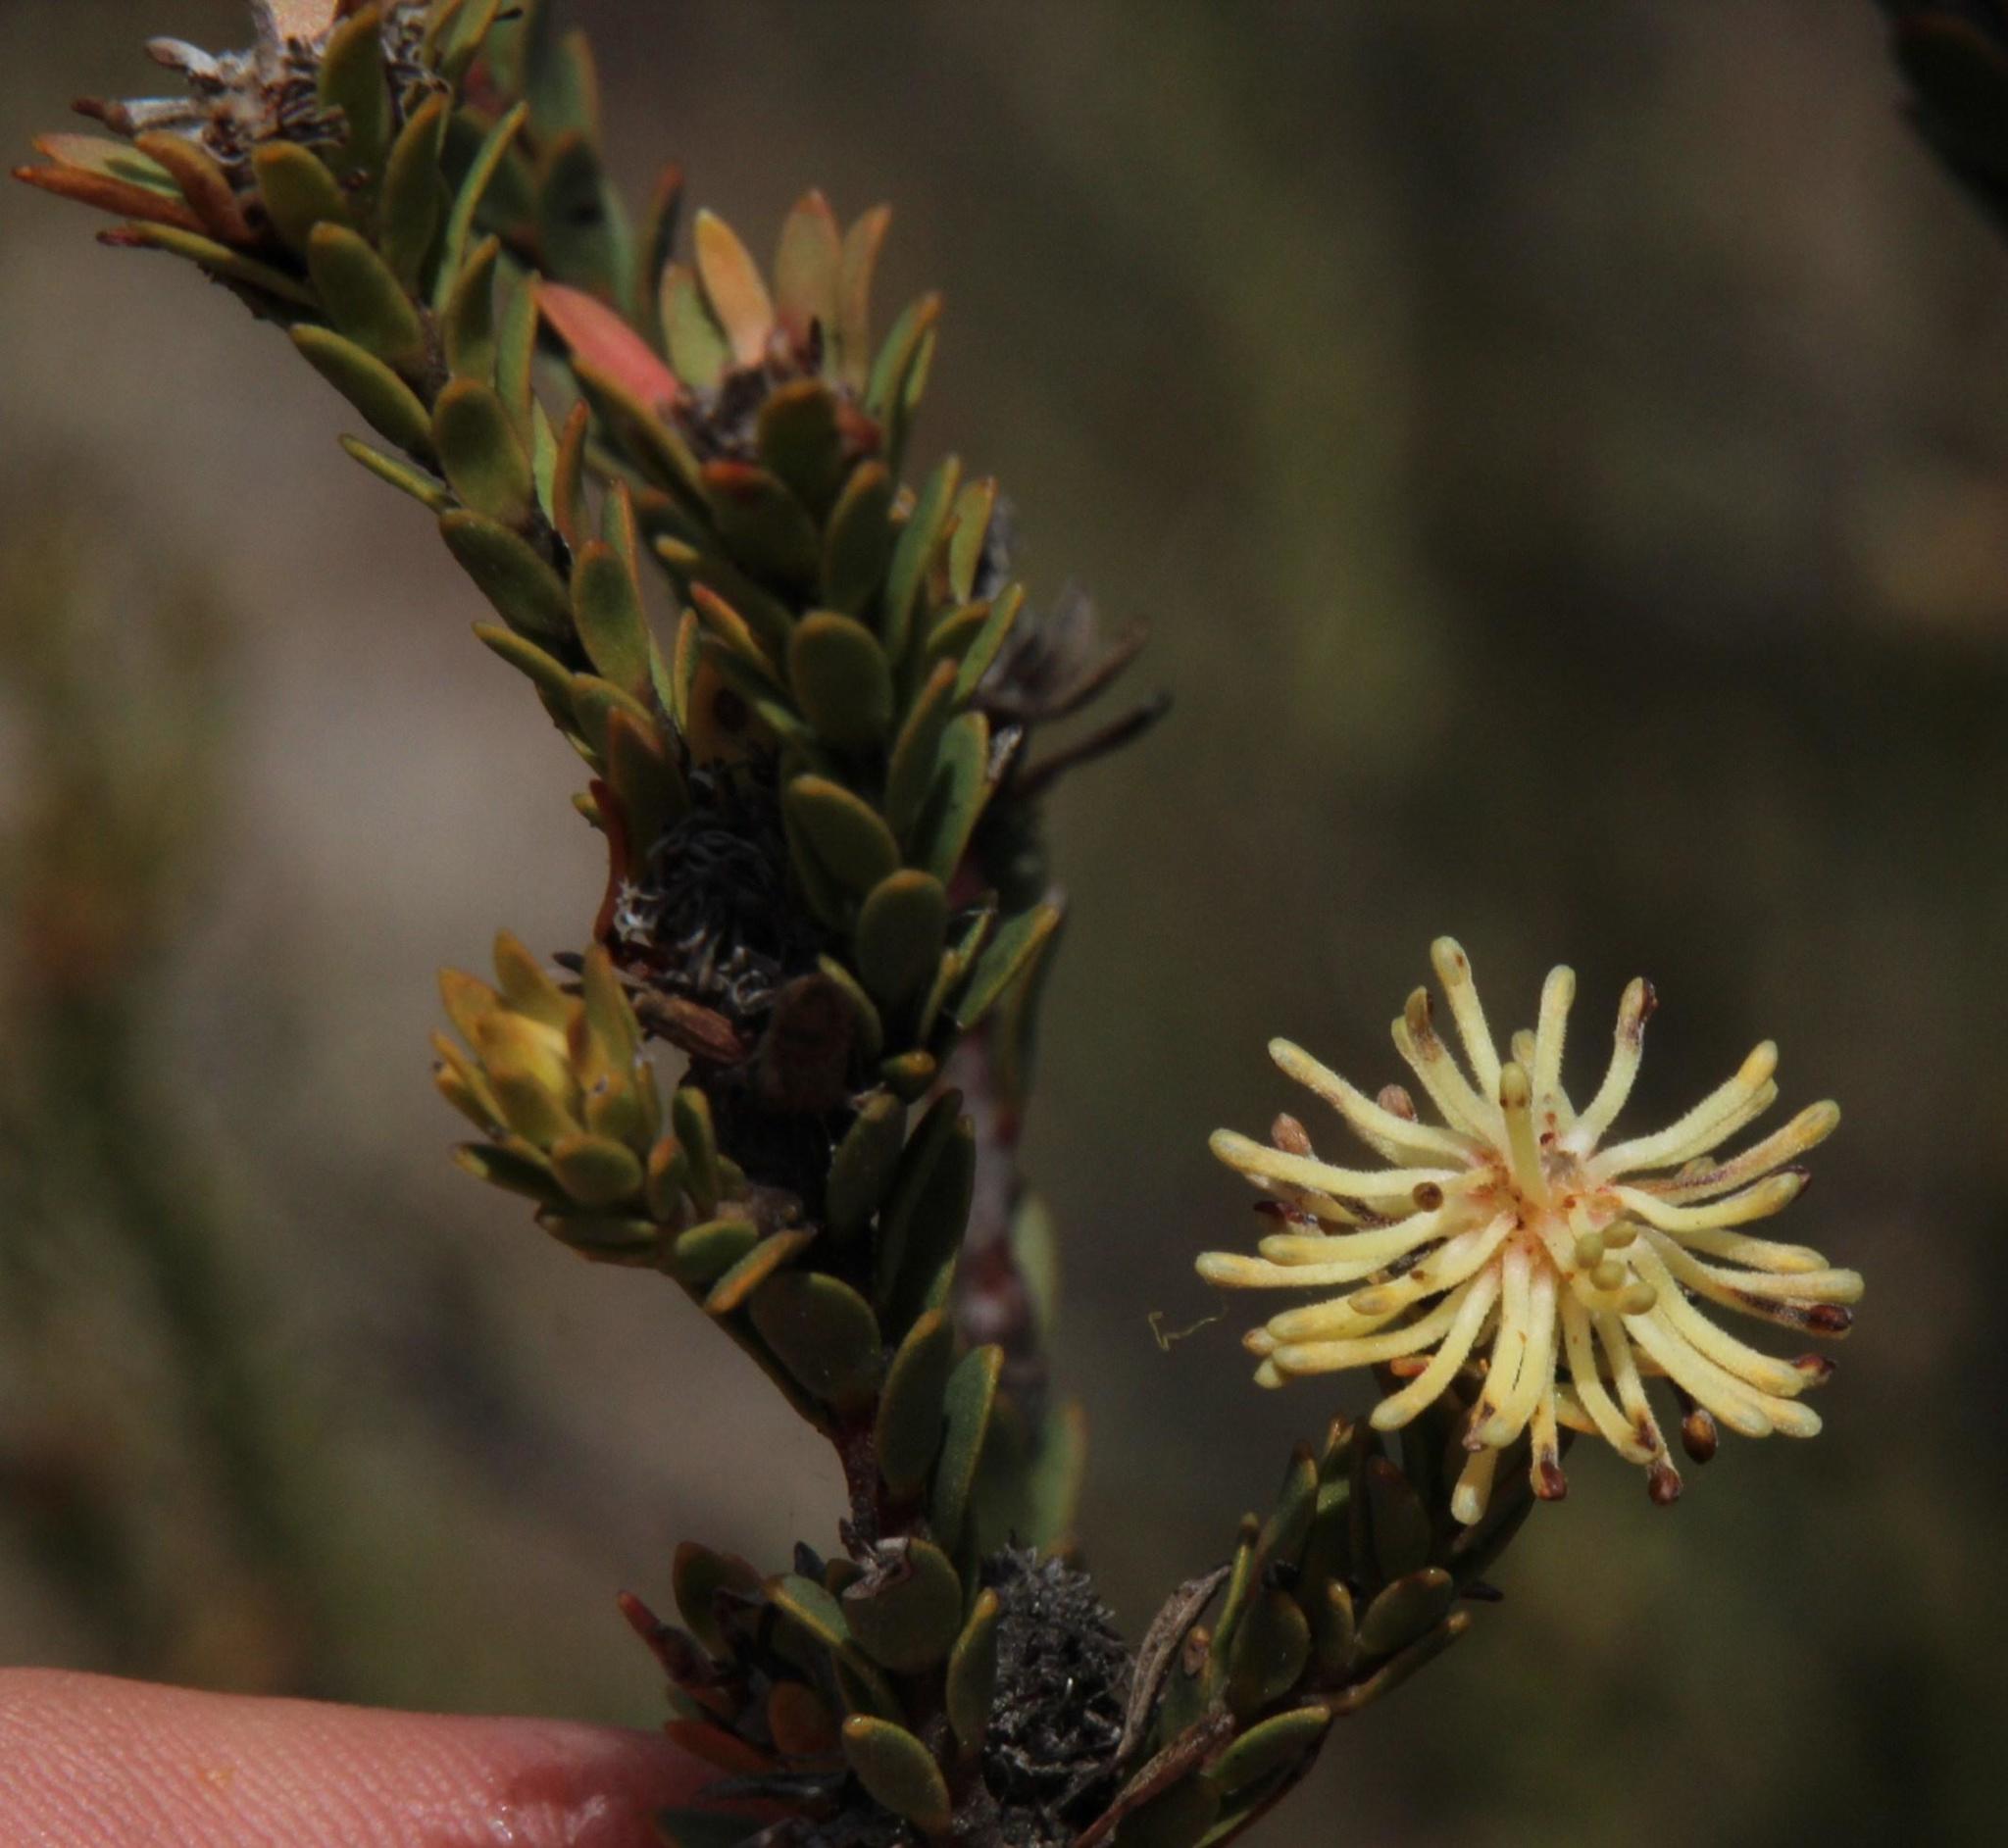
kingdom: Plantae
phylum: Tracheophyta
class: Magnoliopsida
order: Proteales
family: Proteaceae
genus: Leucadendron
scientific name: Leucadendron thymifolium
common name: Malmesbury conebush
